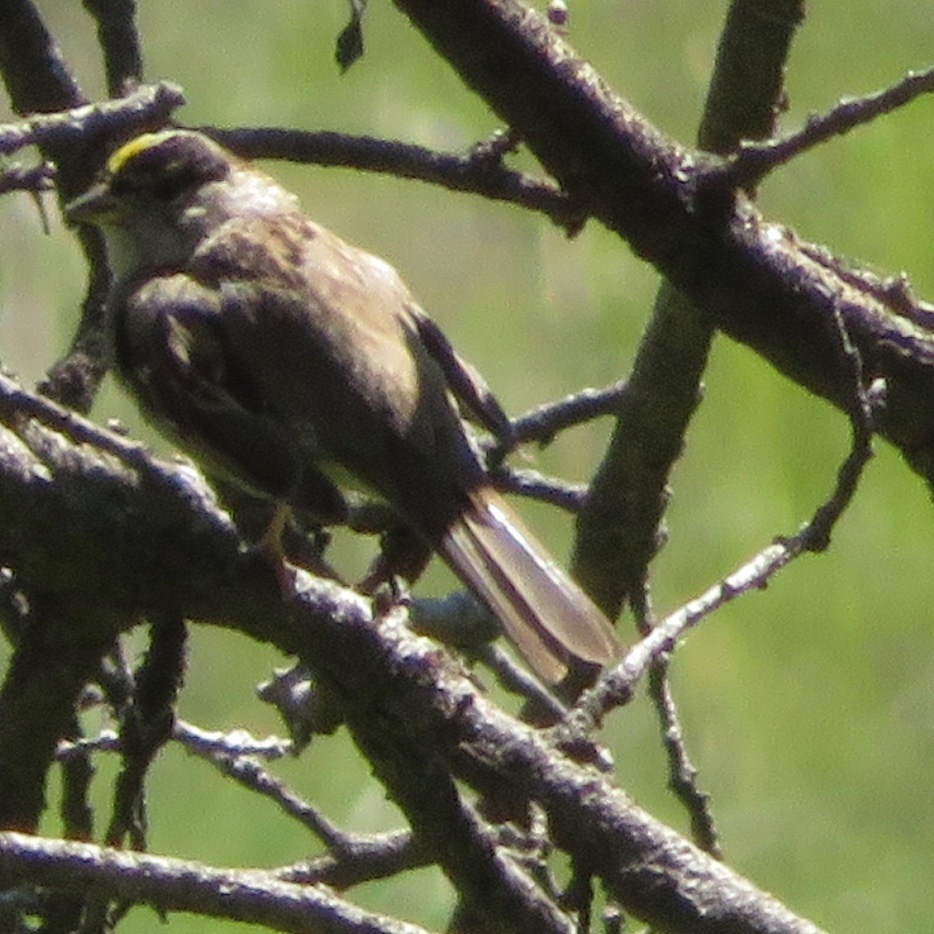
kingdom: Animalia
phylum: Chordata
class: Aves
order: Passeriformes
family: Passerellidae
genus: Zonotrichia
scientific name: Zonotrichia atricapilla
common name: Golden-crowned sparrow
